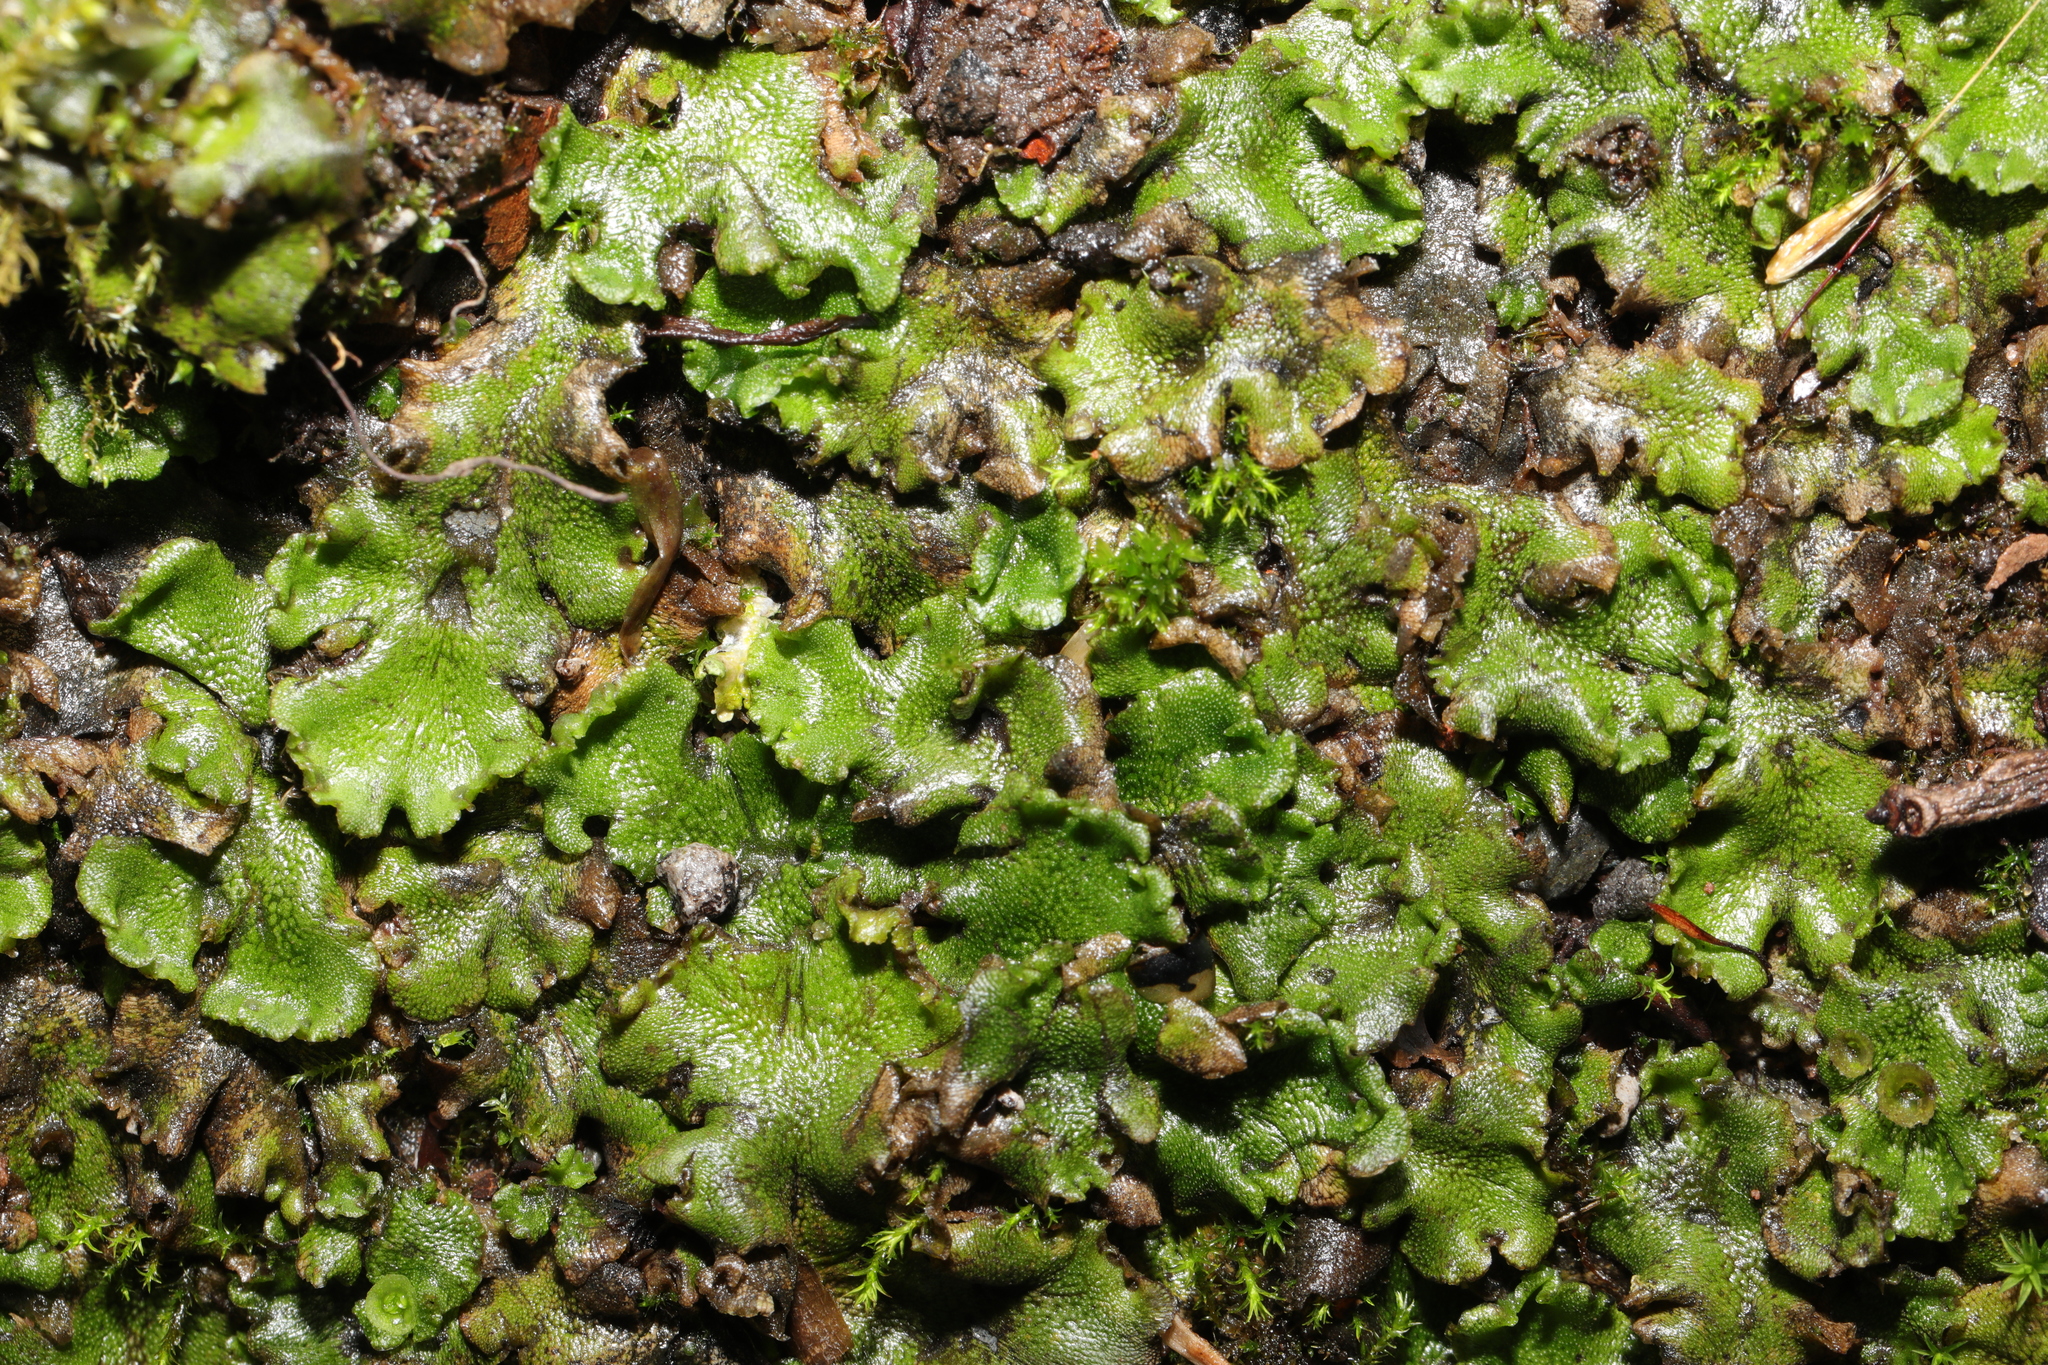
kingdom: Plantae
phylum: Marchantiophyta
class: Marchantiopsida
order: Marchantiales
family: Marchantiaceae
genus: Marchantia
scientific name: Marchantia polymorpha
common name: Common liverwort
